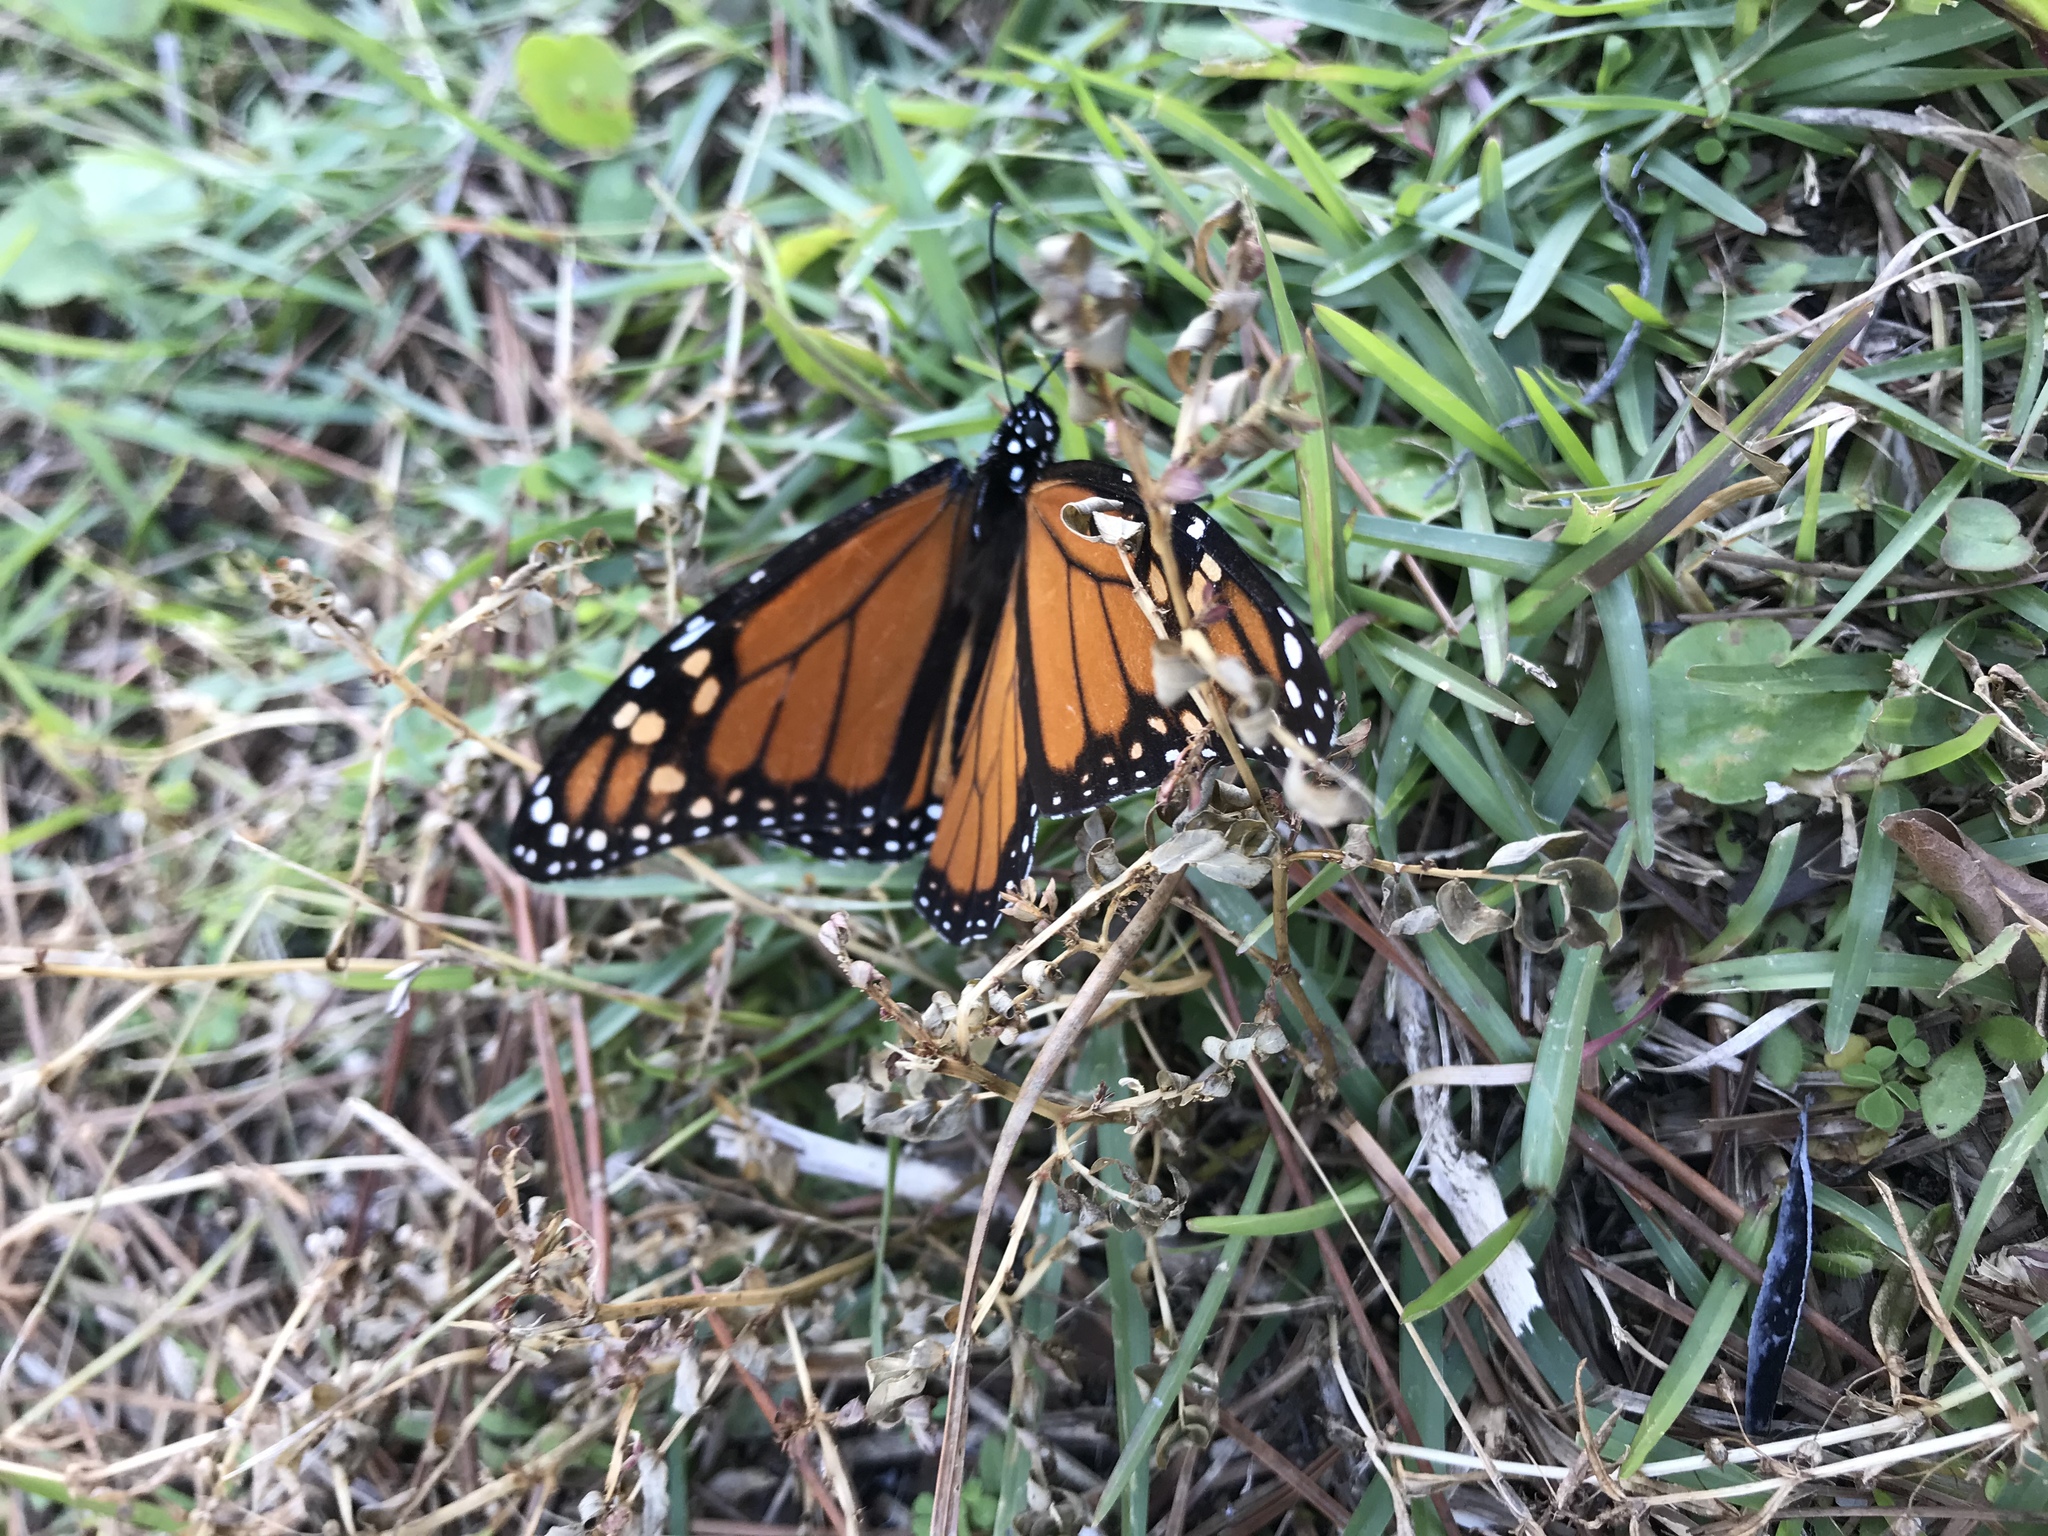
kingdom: Animalia
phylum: Arthropoda
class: Insecta
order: Lepidoptera
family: Nymphalidae
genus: Danaus
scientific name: Danaus plexippus
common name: Monarch
